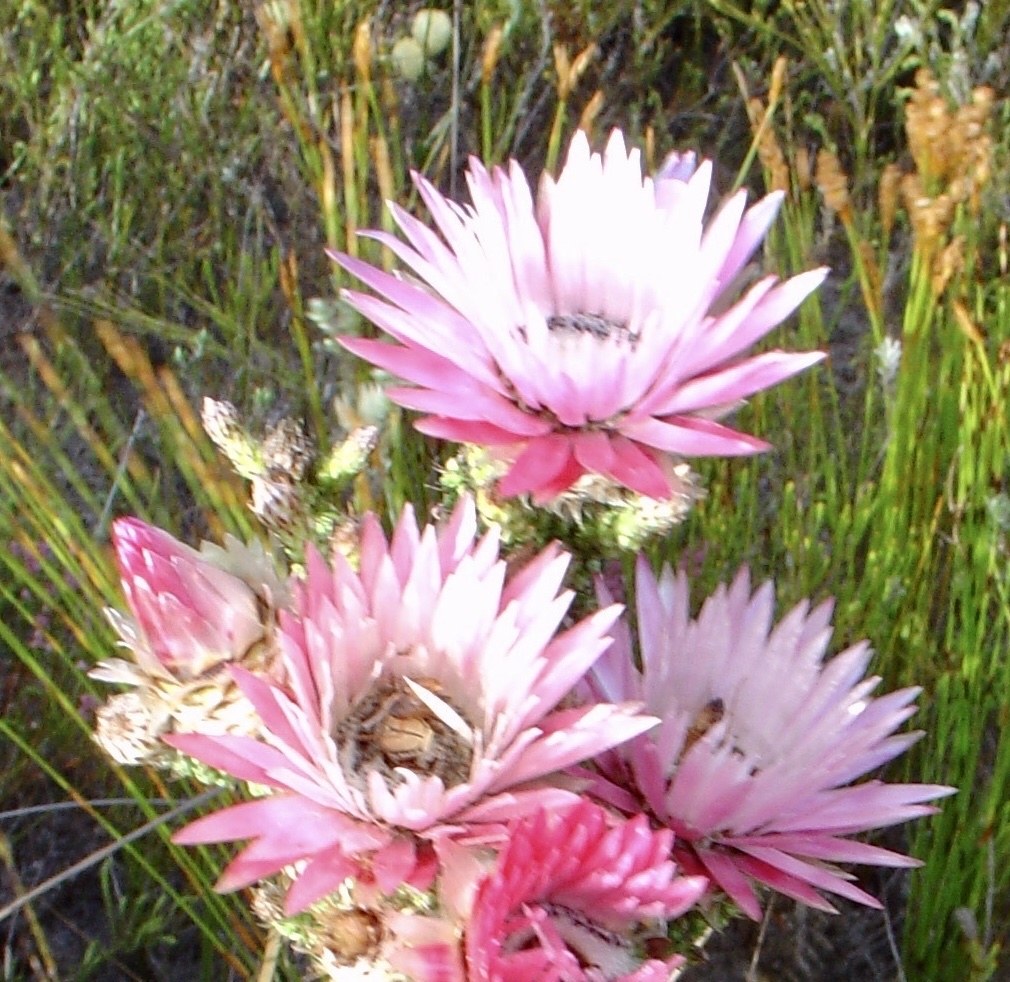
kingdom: Plantae
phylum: Tracheophyta
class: Magnoliopsida
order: Asterales
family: Asteraceae
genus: Phaenocoma
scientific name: Phaenocoma prolifera
